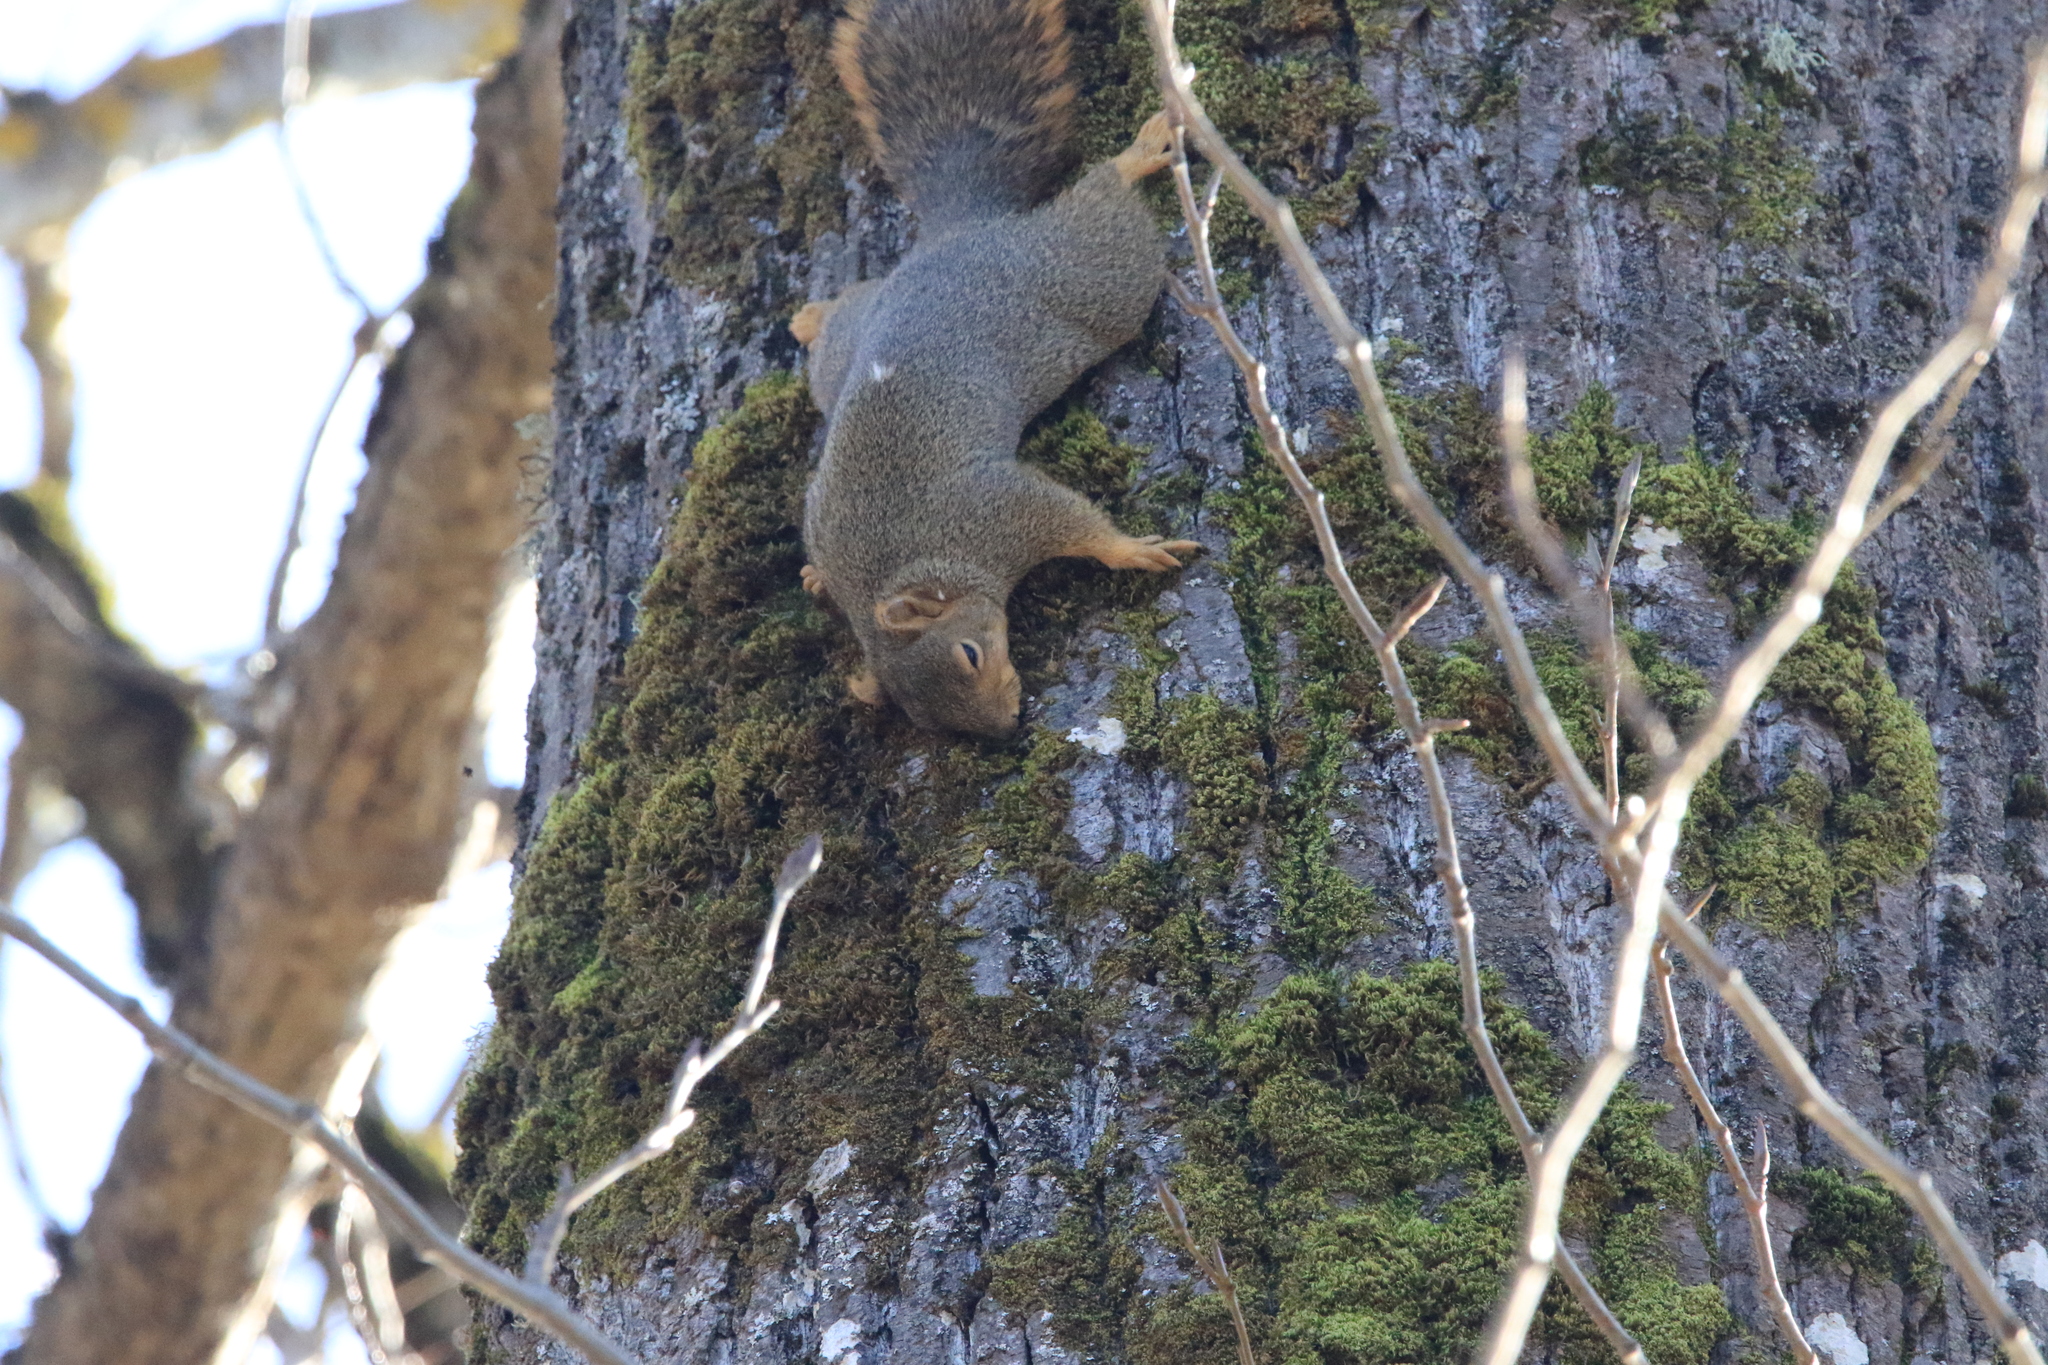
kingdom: Animalia
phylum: Chordata
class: Mammalia
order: Rodentia
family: Sciuridae
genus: Sciurus
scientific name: Sciurus niger
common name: Fox squirrel
